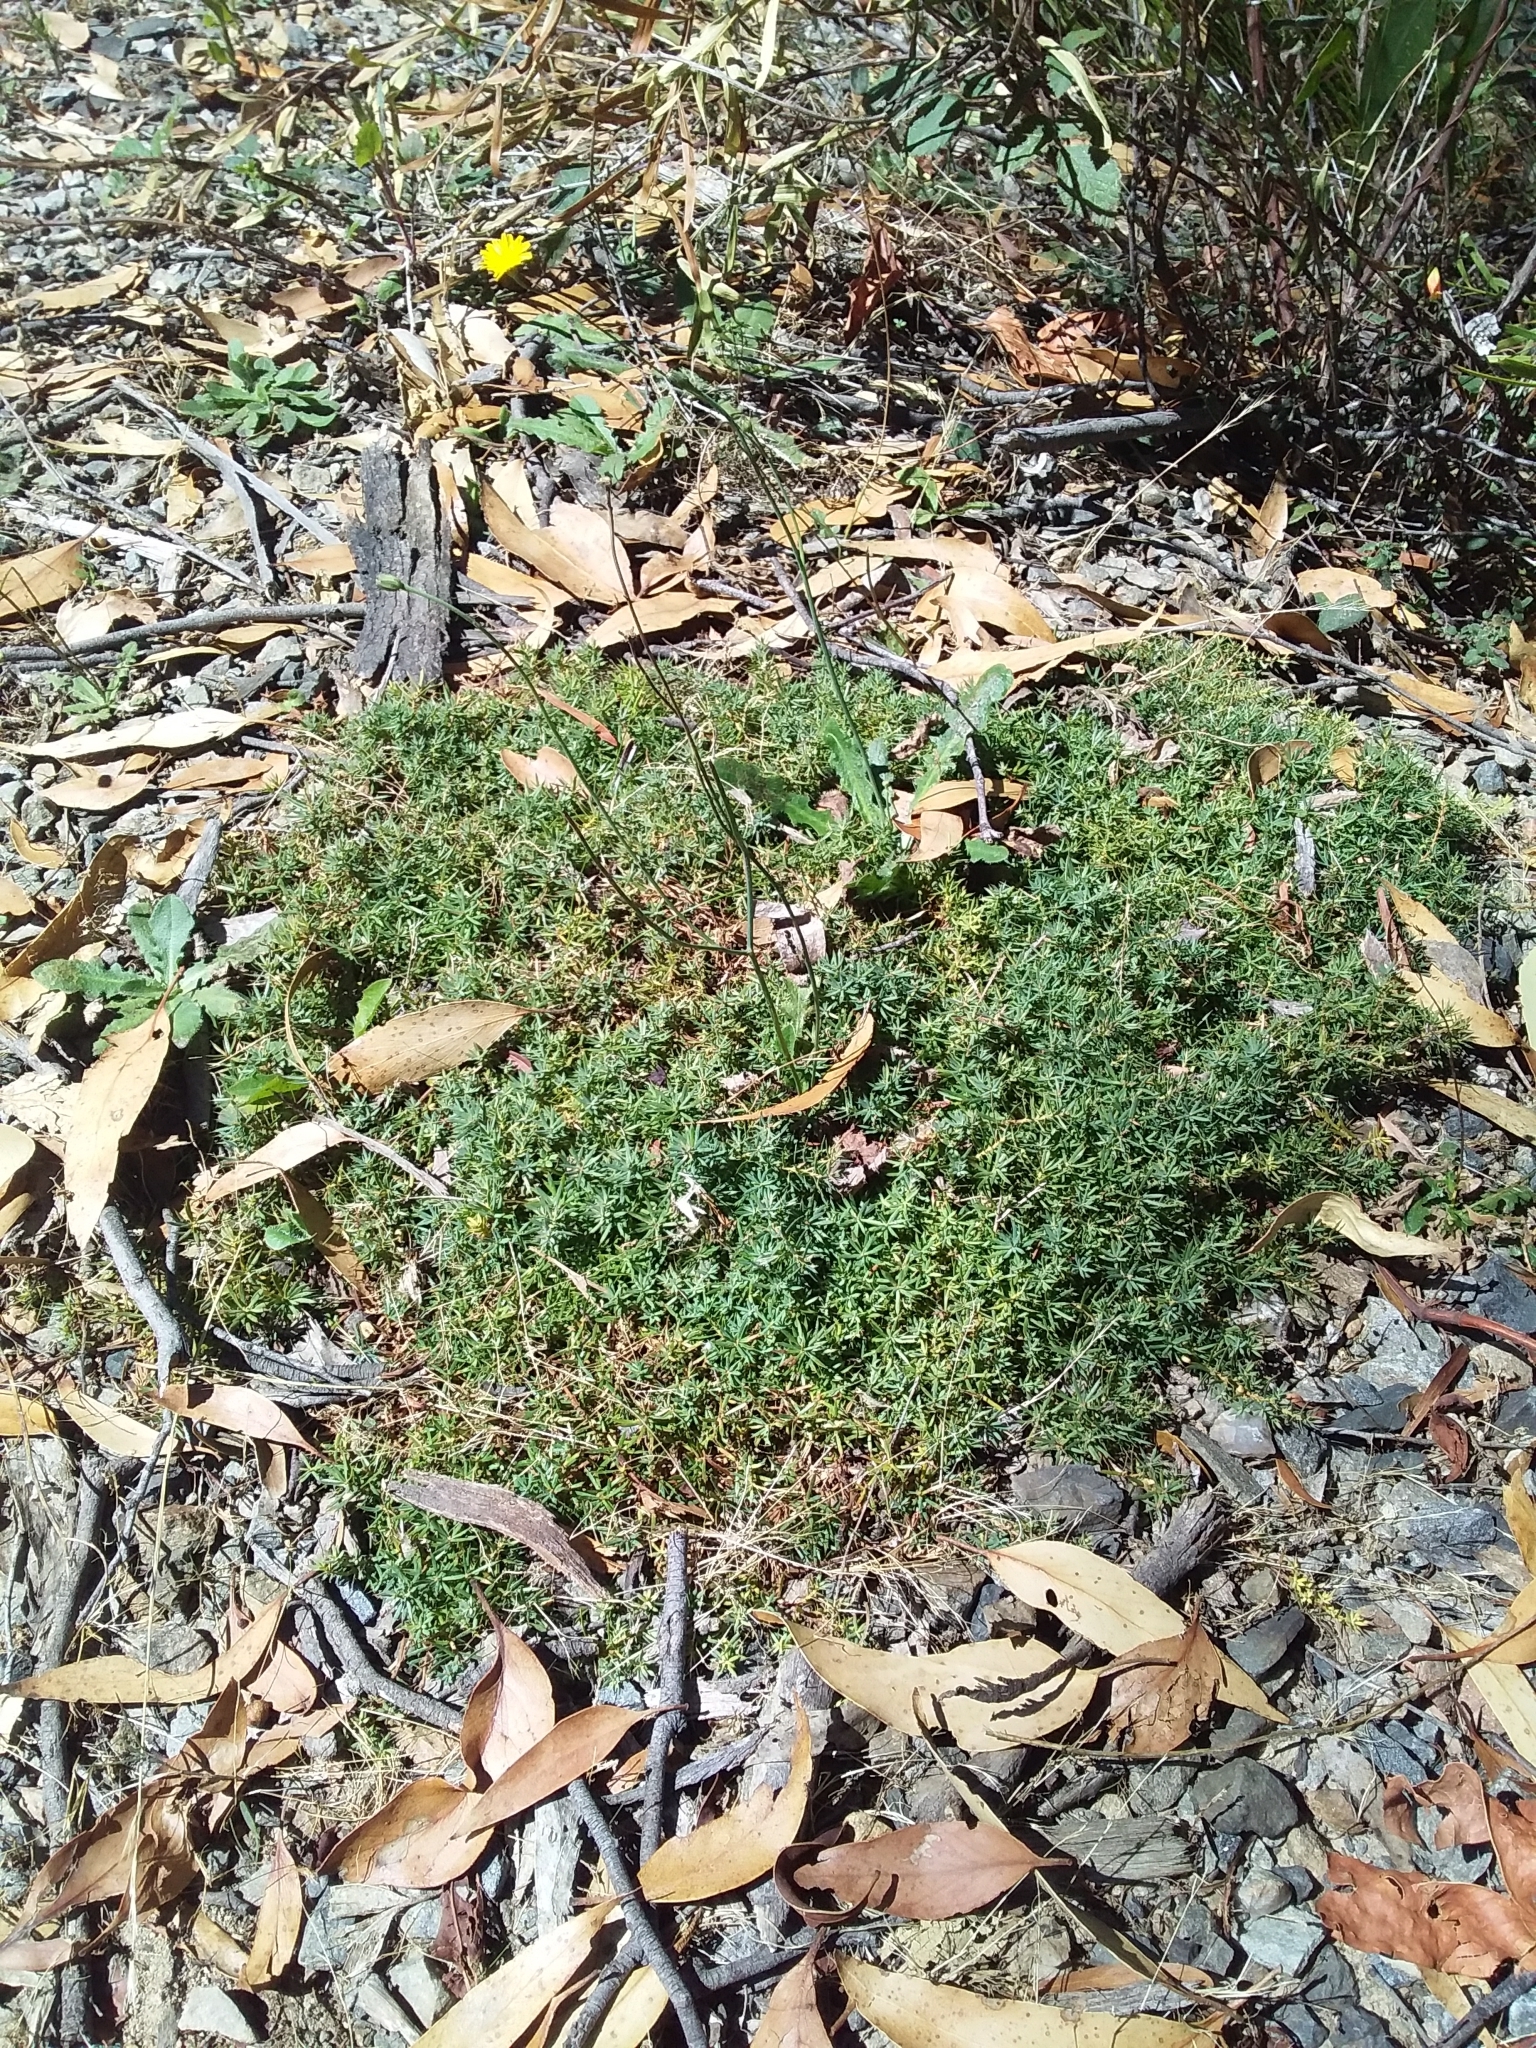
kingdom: Plantae
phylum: Tracheophyta
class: Magnoliopsida
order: Ericales
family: Ericaceae
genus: Styphelia
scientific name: Styphelia humifusa
